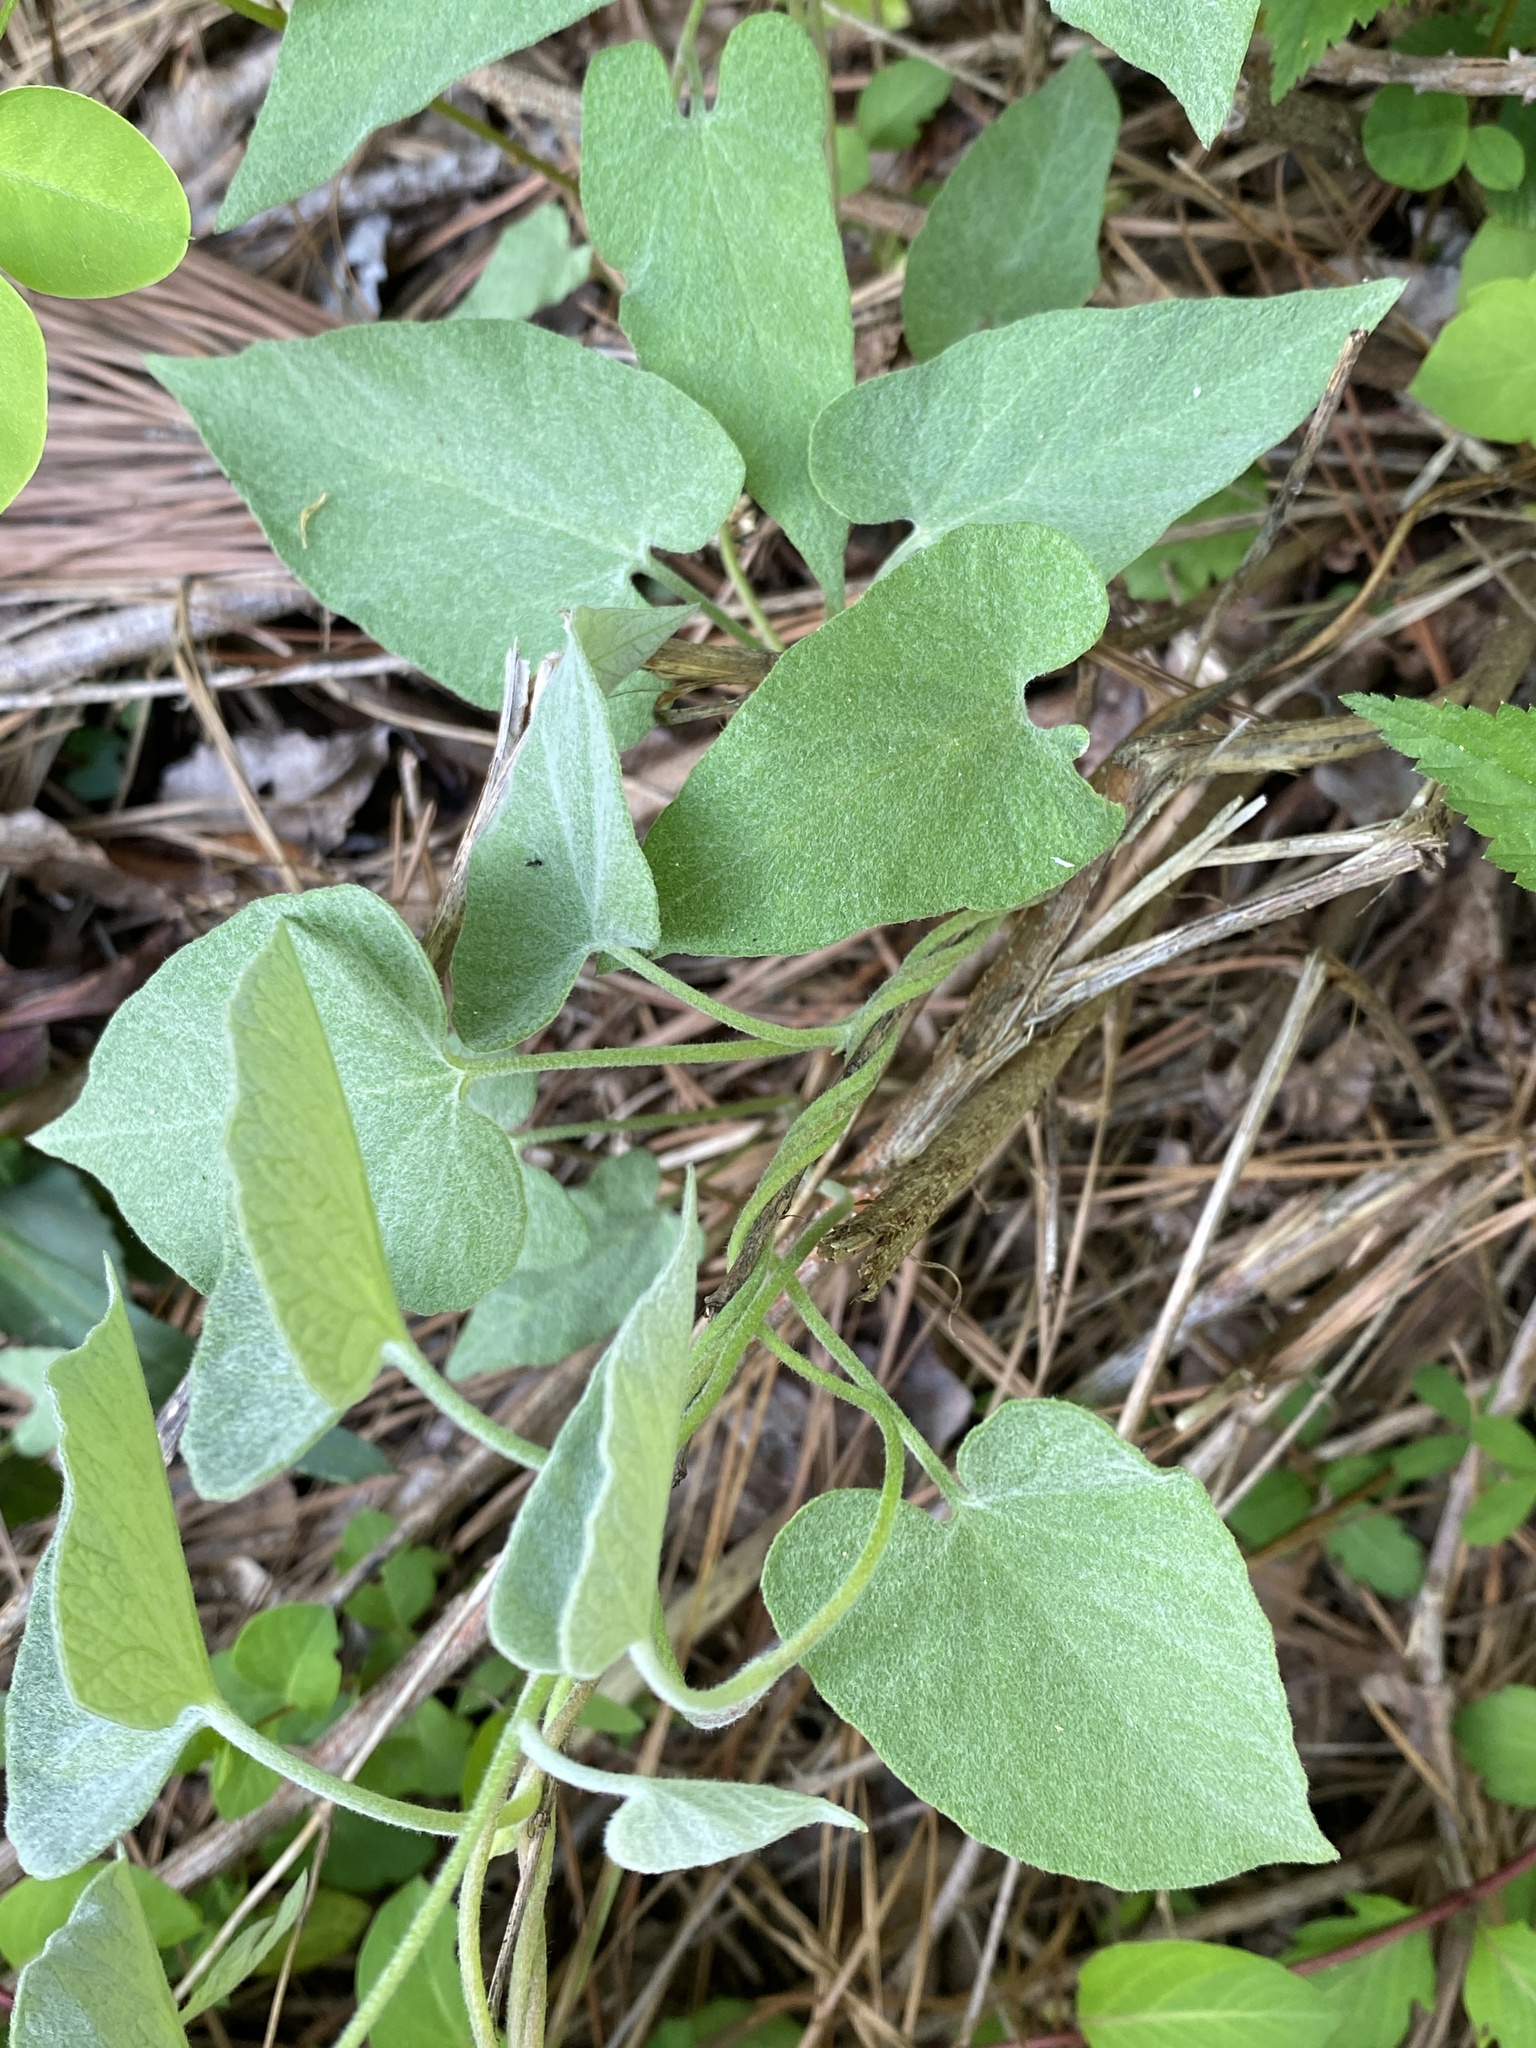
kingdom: Plantae
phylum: Tracheophyta
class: Magnoliopsida
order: Solanales
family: Convolvulaceae
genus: Calystegia
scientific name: Calystegia catesbeiana
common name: Catesby's false bindweed
